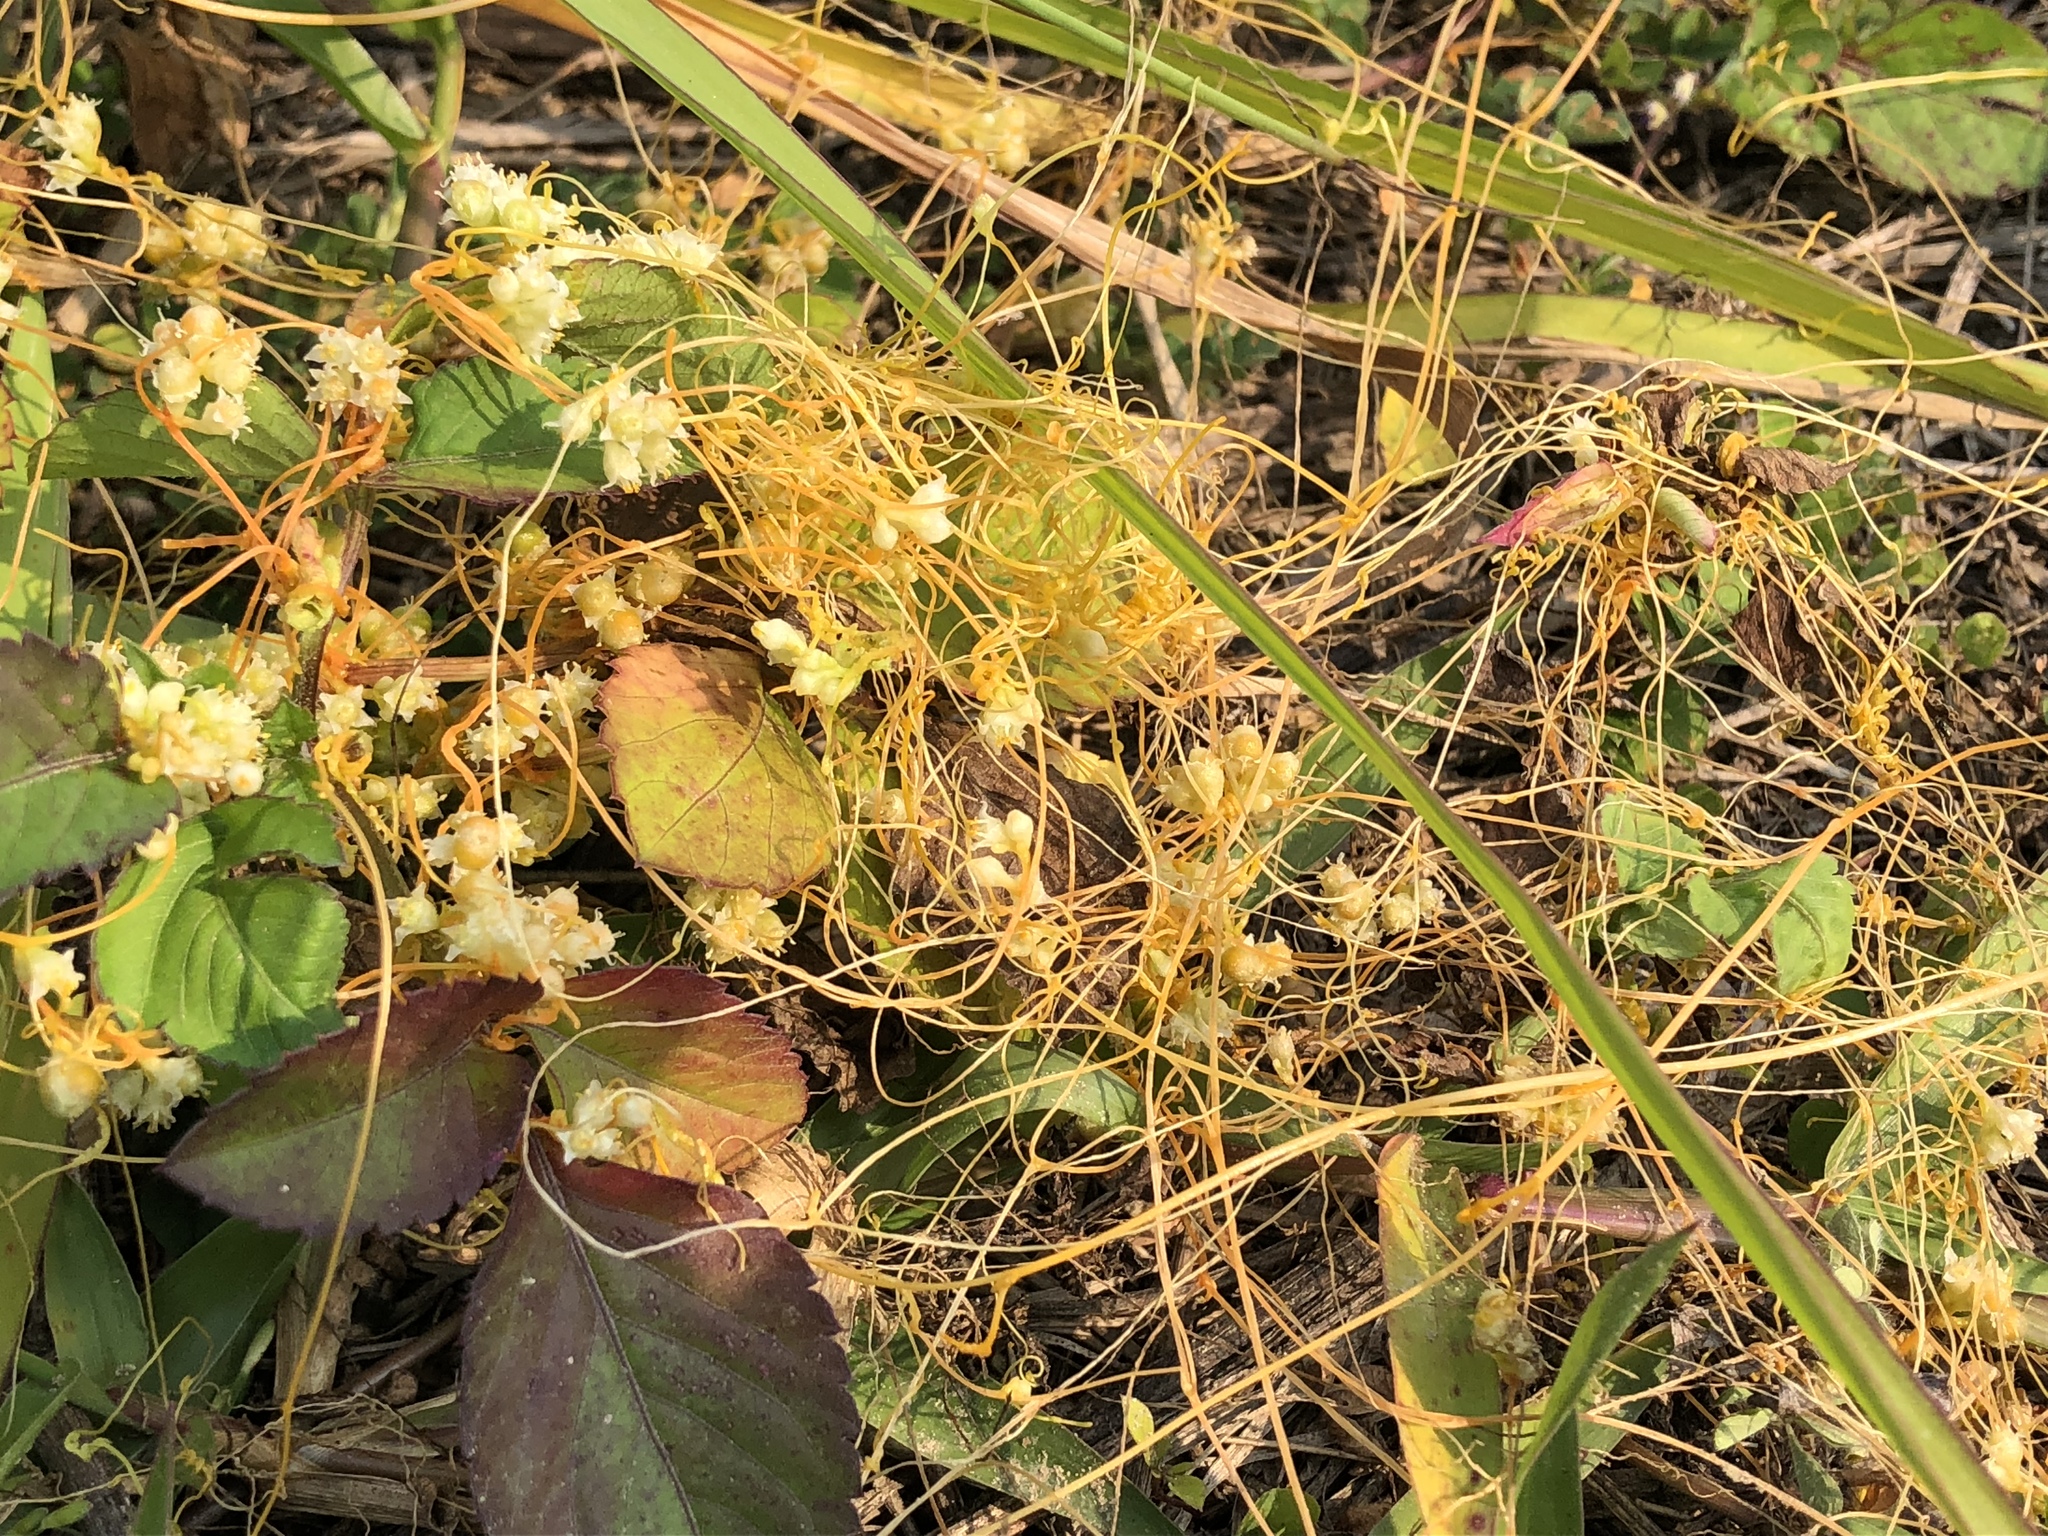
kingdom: Plantae
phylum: Tracheophyta
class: Magnoliopsida
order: Solanales
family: Convolvulaceae
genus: Cuscuta
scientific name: Cuscuta campestris
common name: Yellow dodder
